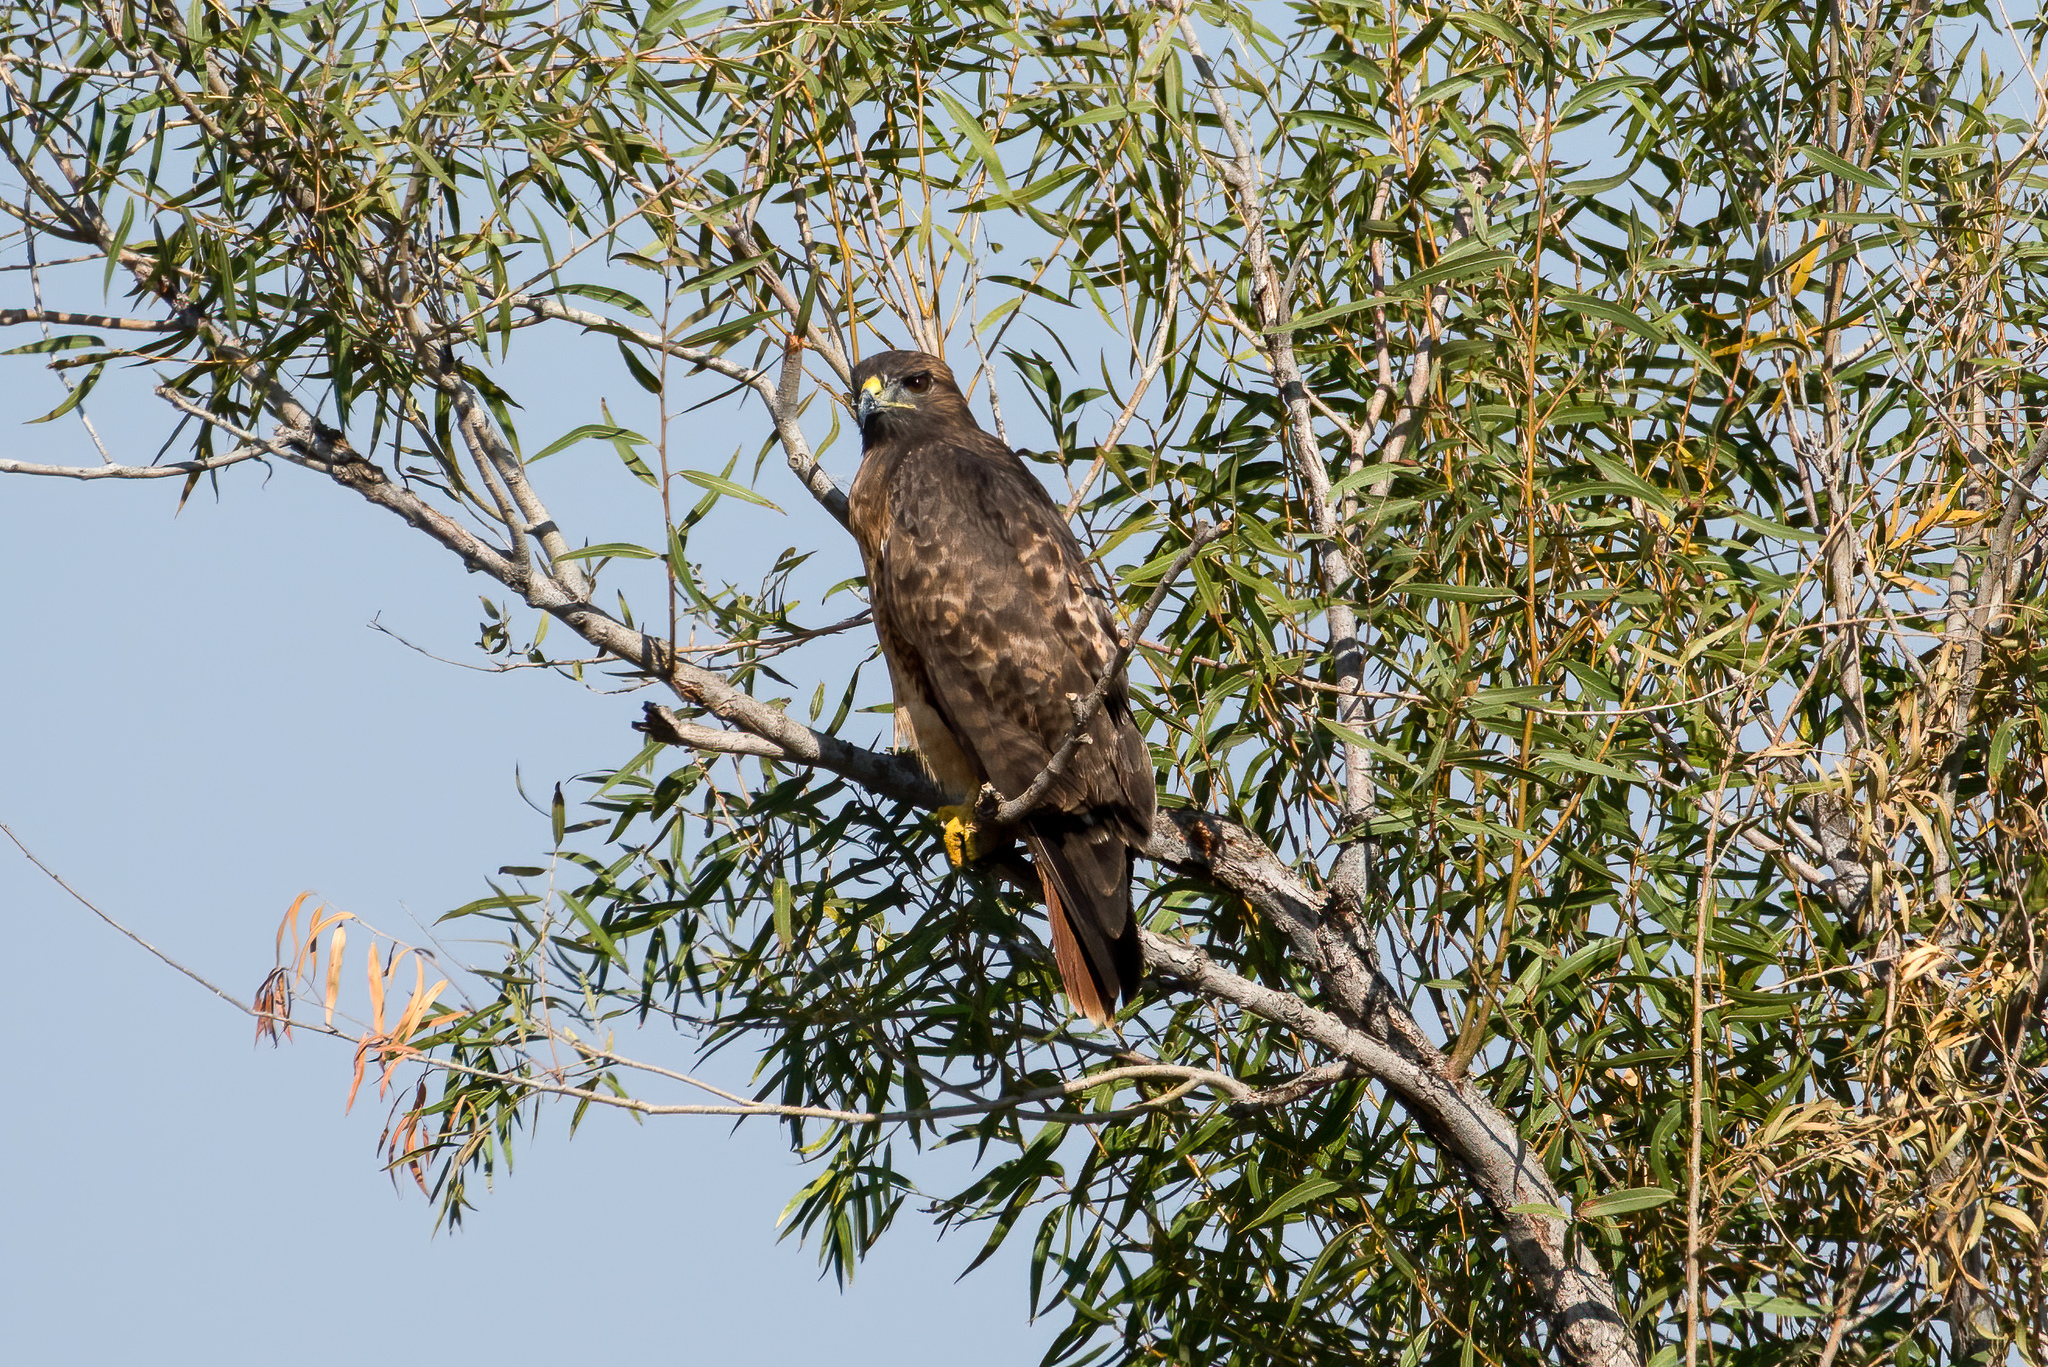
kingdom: Animalia
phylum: Chordata
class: Aves
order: Accipitriformes
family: Accipitridae
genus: Buteo
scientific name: Buteo jamaicensis
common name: Red-tailed hawk
